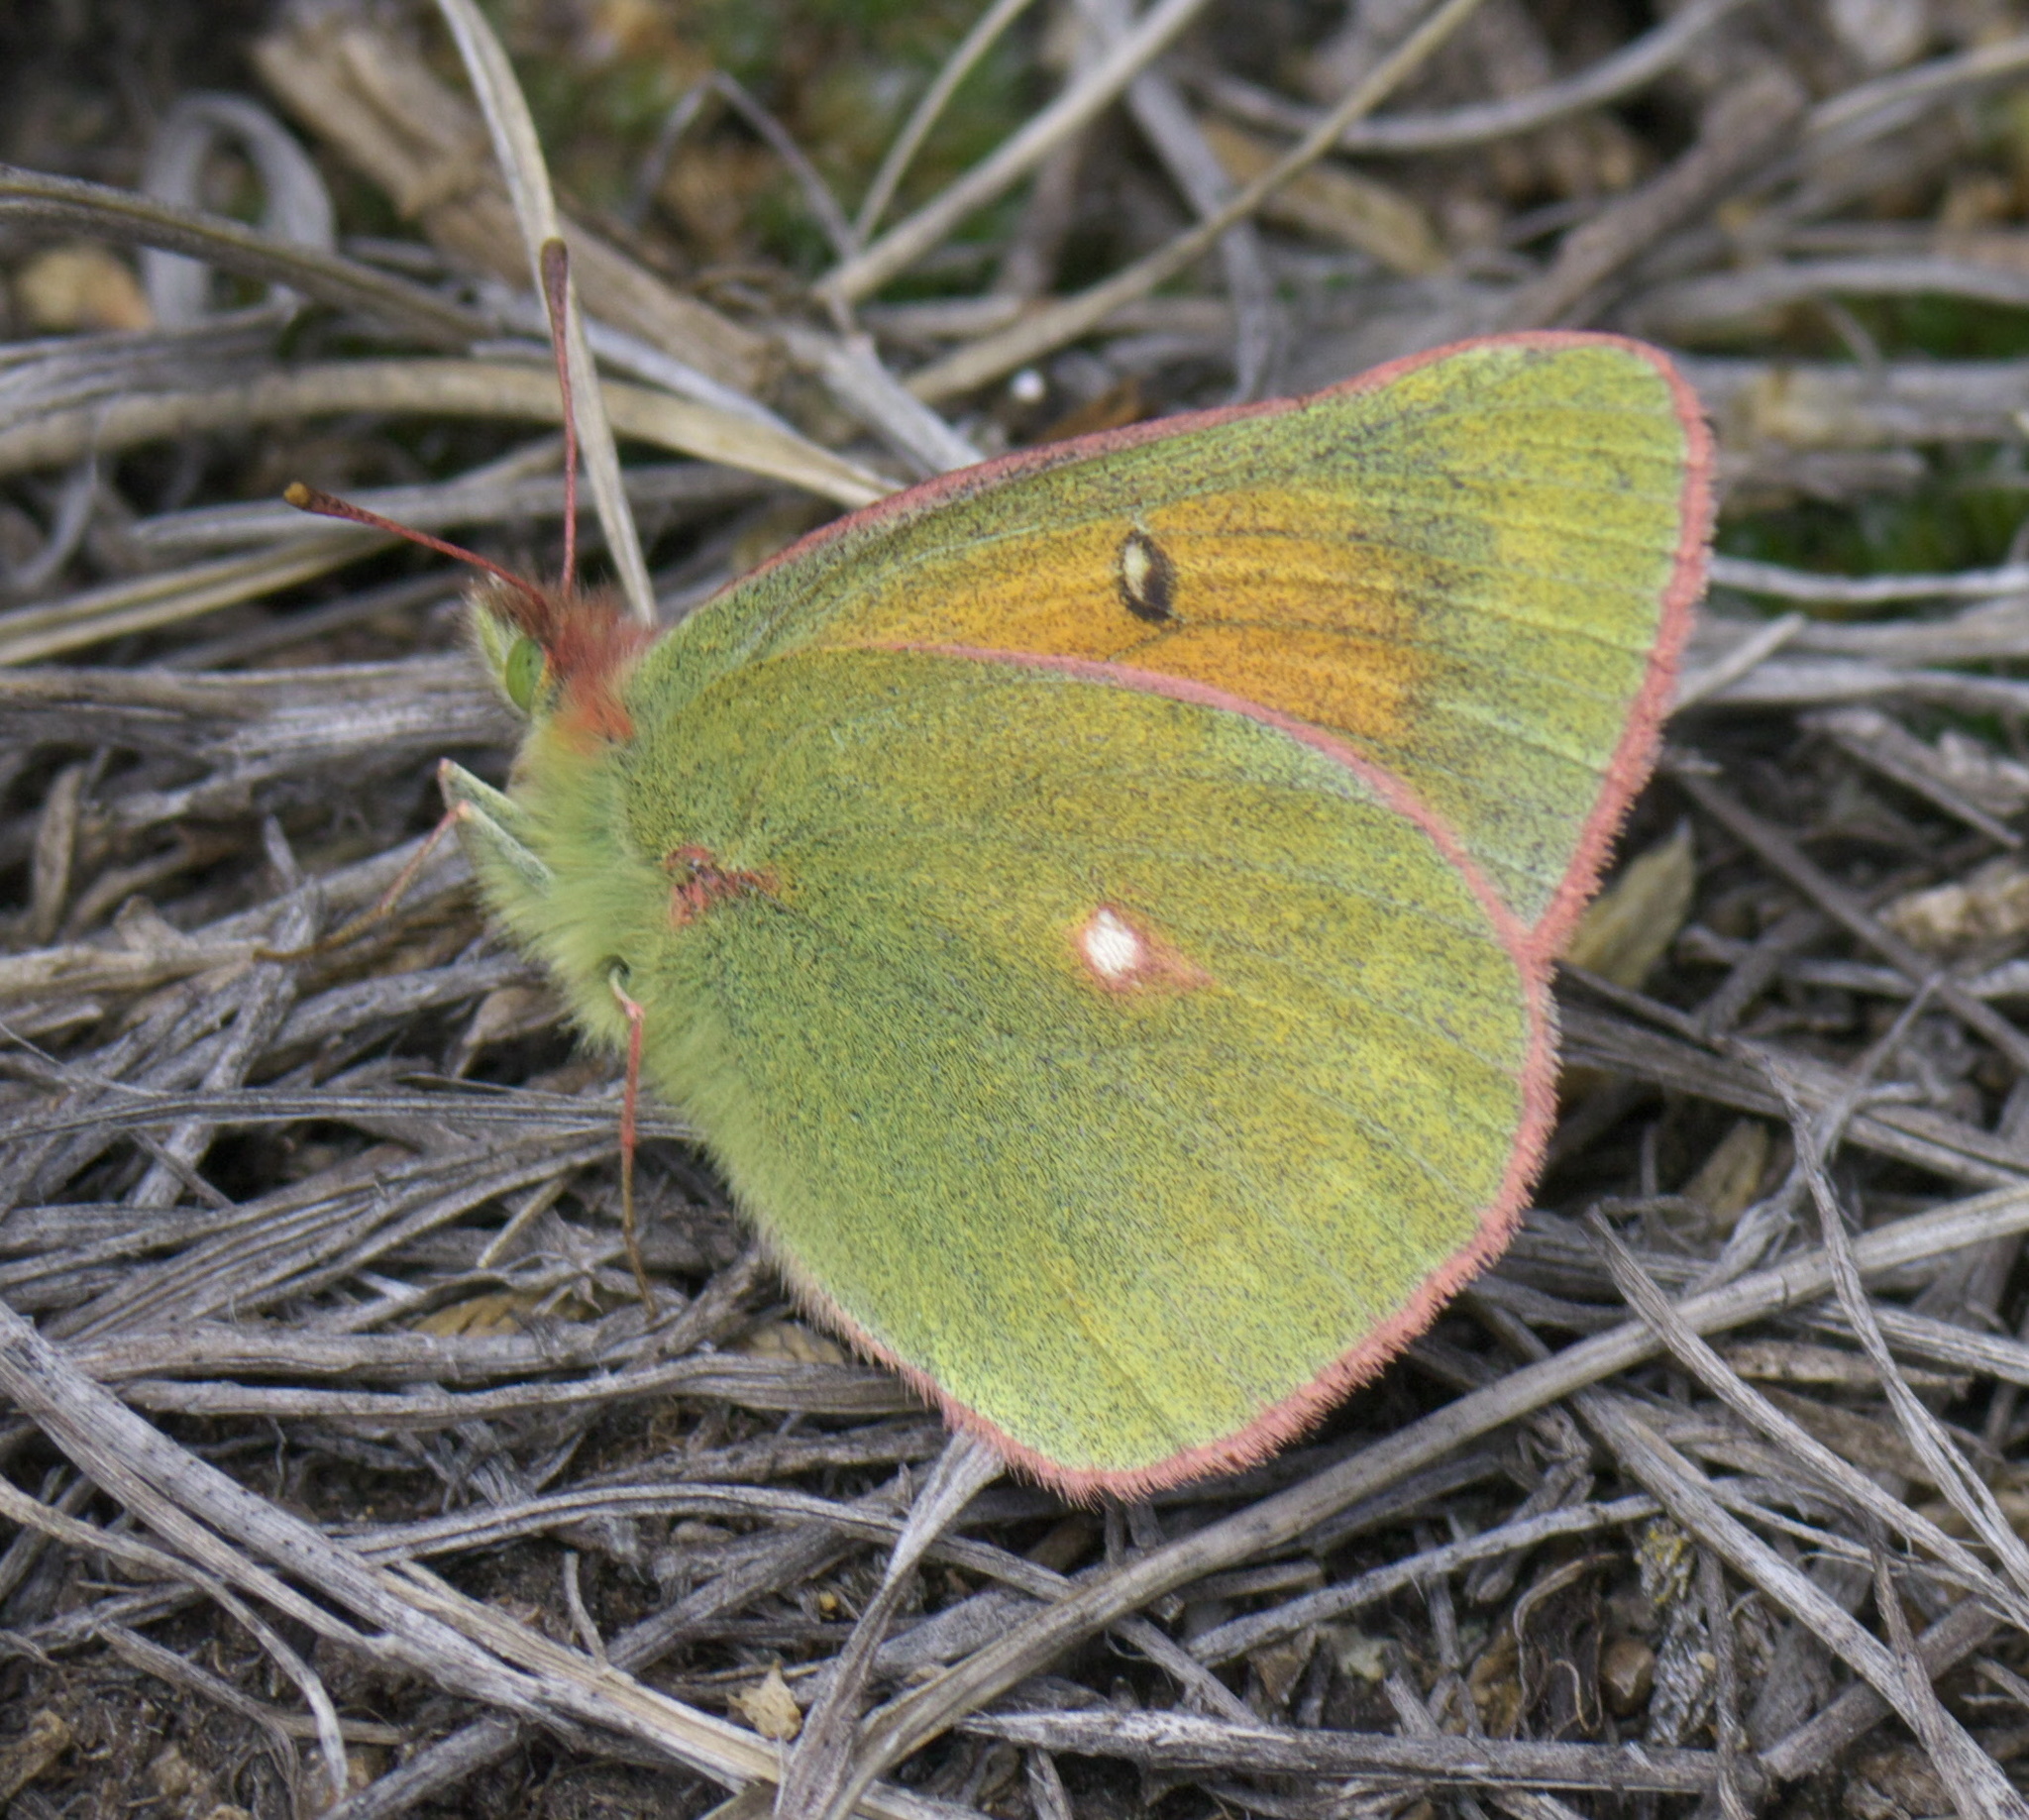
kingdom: Animalia
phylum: Arthropoda
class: Insecta
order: Lepidoptera
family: Pieridae
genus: Colias
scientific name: Colias meadii
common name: Mead's sulphur
